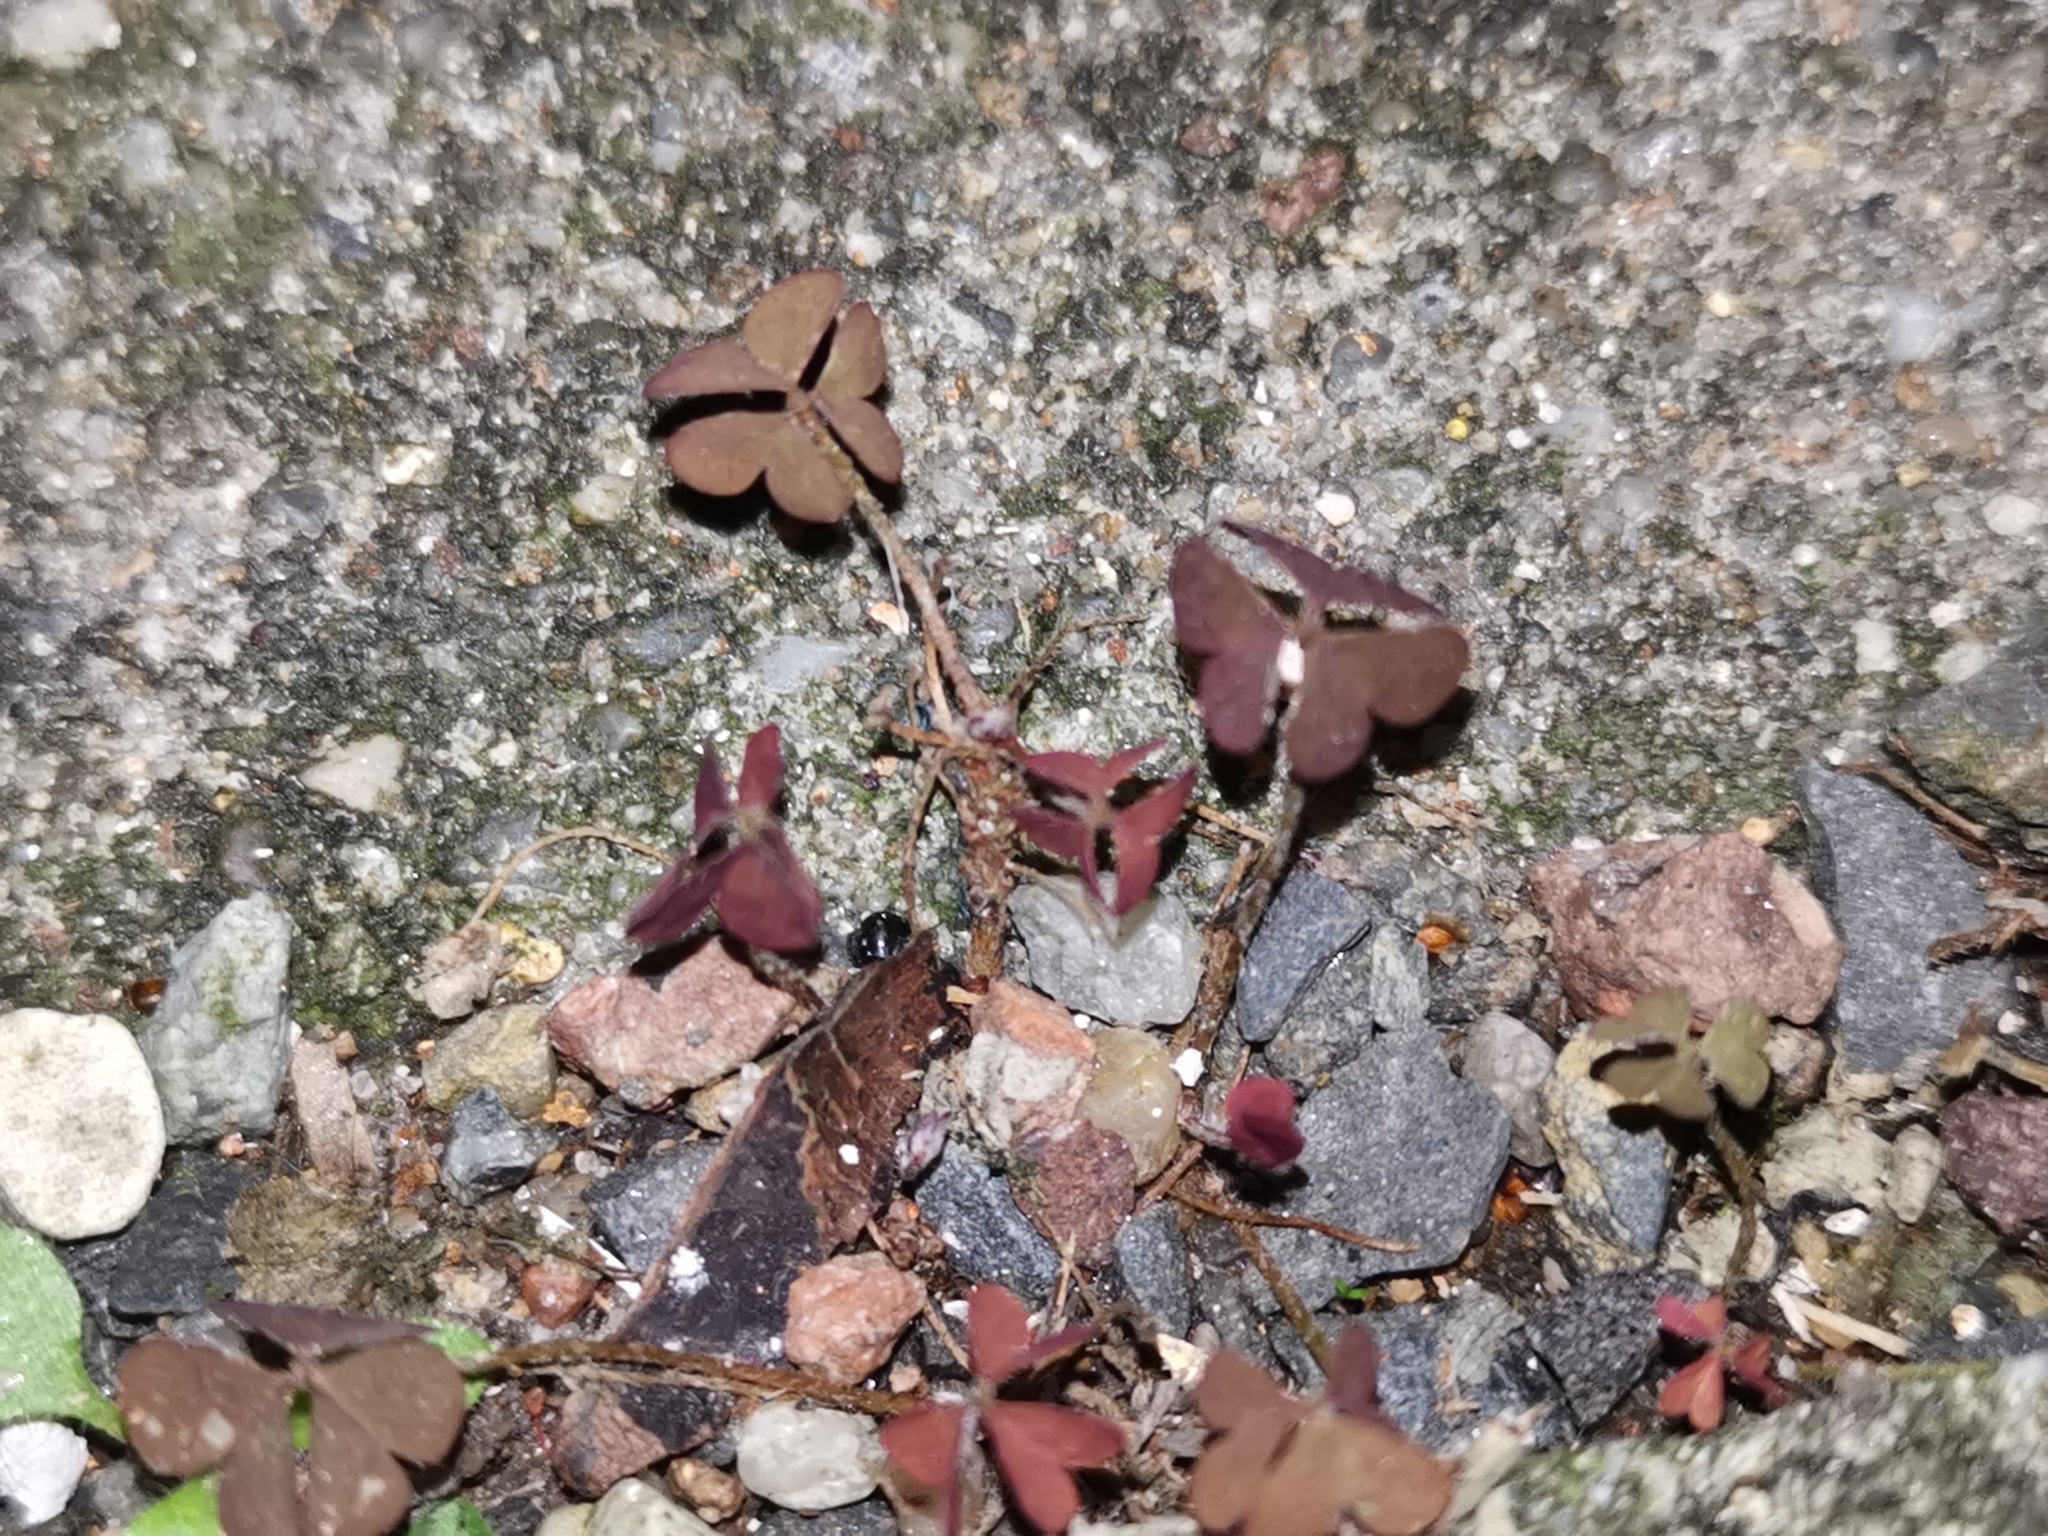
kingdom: Plantae
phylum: Tracheophyta
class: Magnoliopsida
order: Oxalidales
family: Oxalidaceae
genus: Oxalis
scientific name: Oxalis corniculata
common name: Procumbent yellow-sorrel
